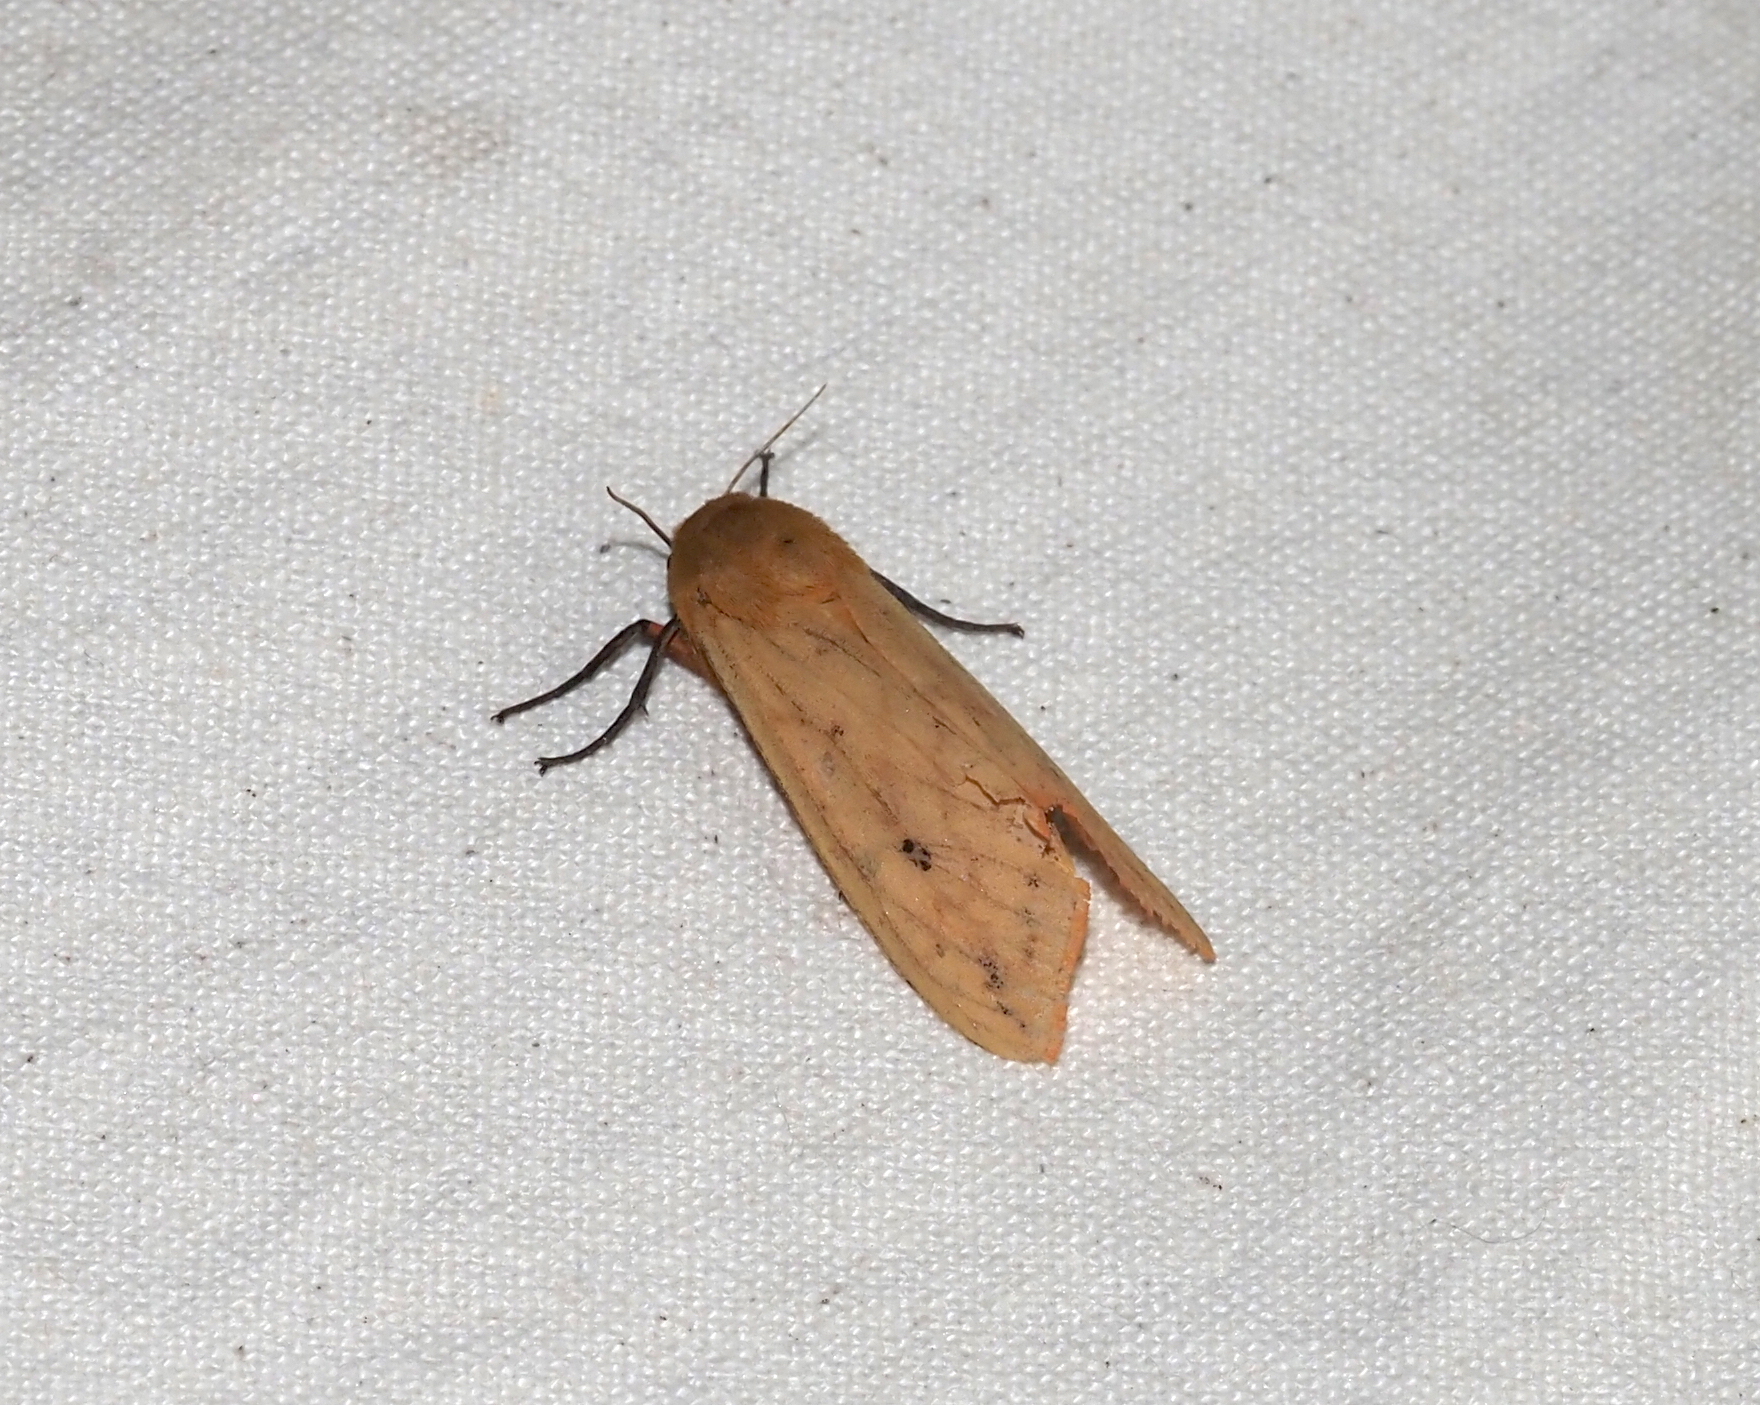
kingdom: Animalia
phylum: Arthropoda
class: Insecta
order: Lepidoptera
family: Erebidae
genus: Pyrrharctia
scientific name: Pyrrharctia isabella
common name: Isabella tiger moth
